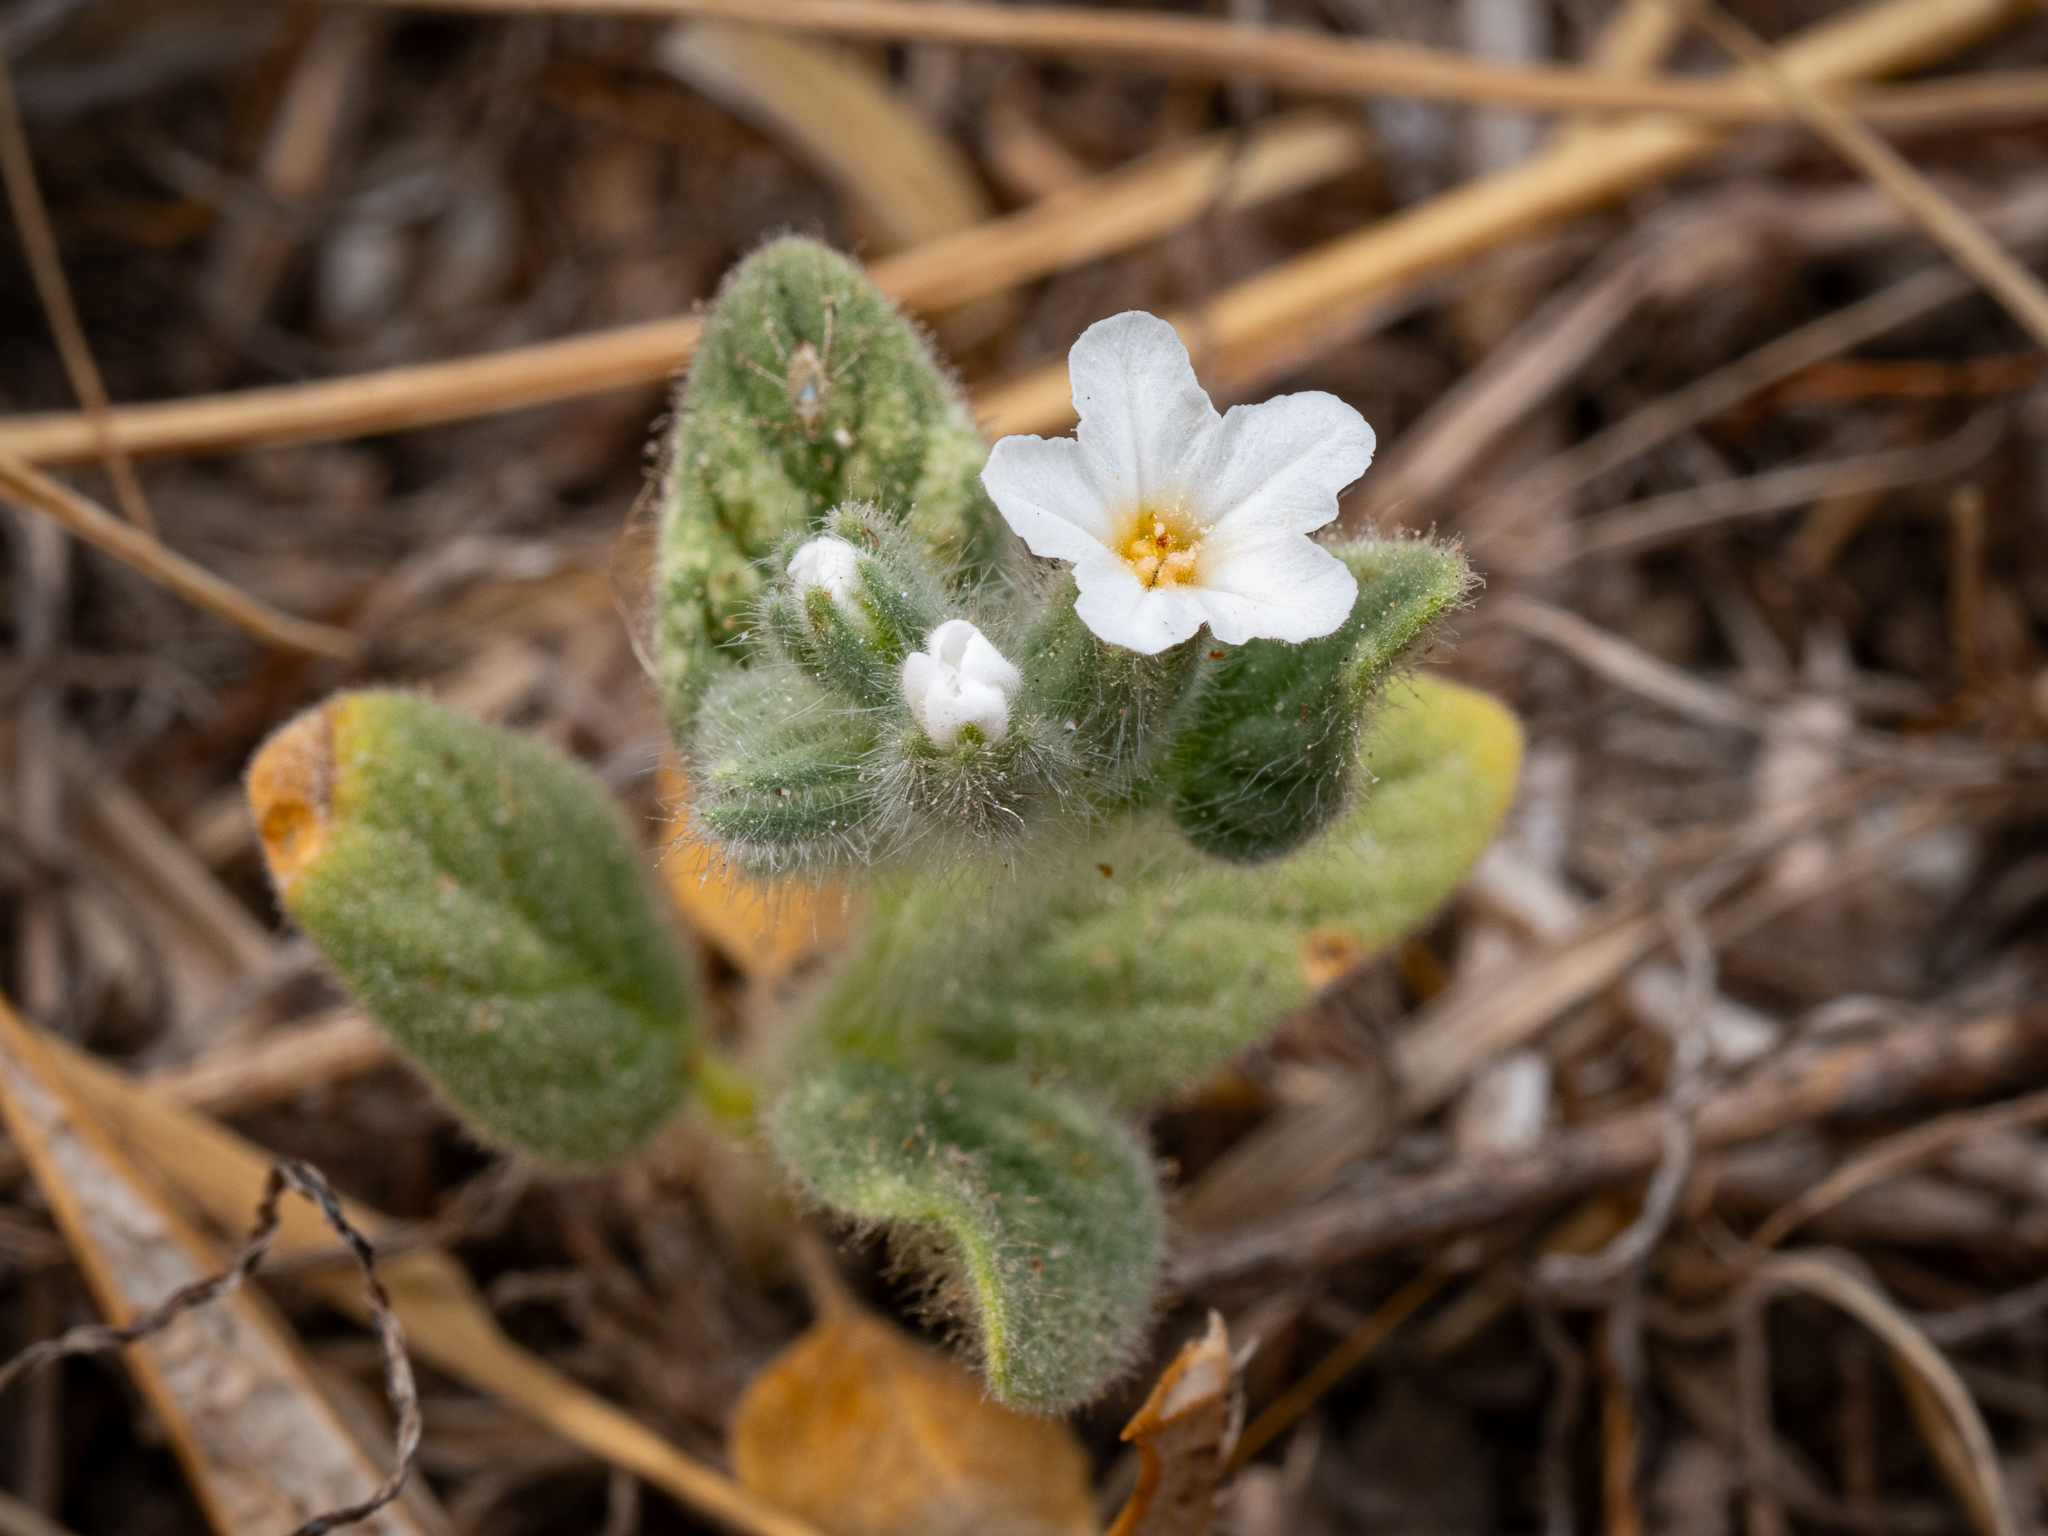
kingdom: Plantae
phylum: Tracheophyta
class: Magnoliopsida
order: Boraginales
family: Heliotropiaceae
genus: Heliotropium
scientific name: Heliotropium hirsutissimum
